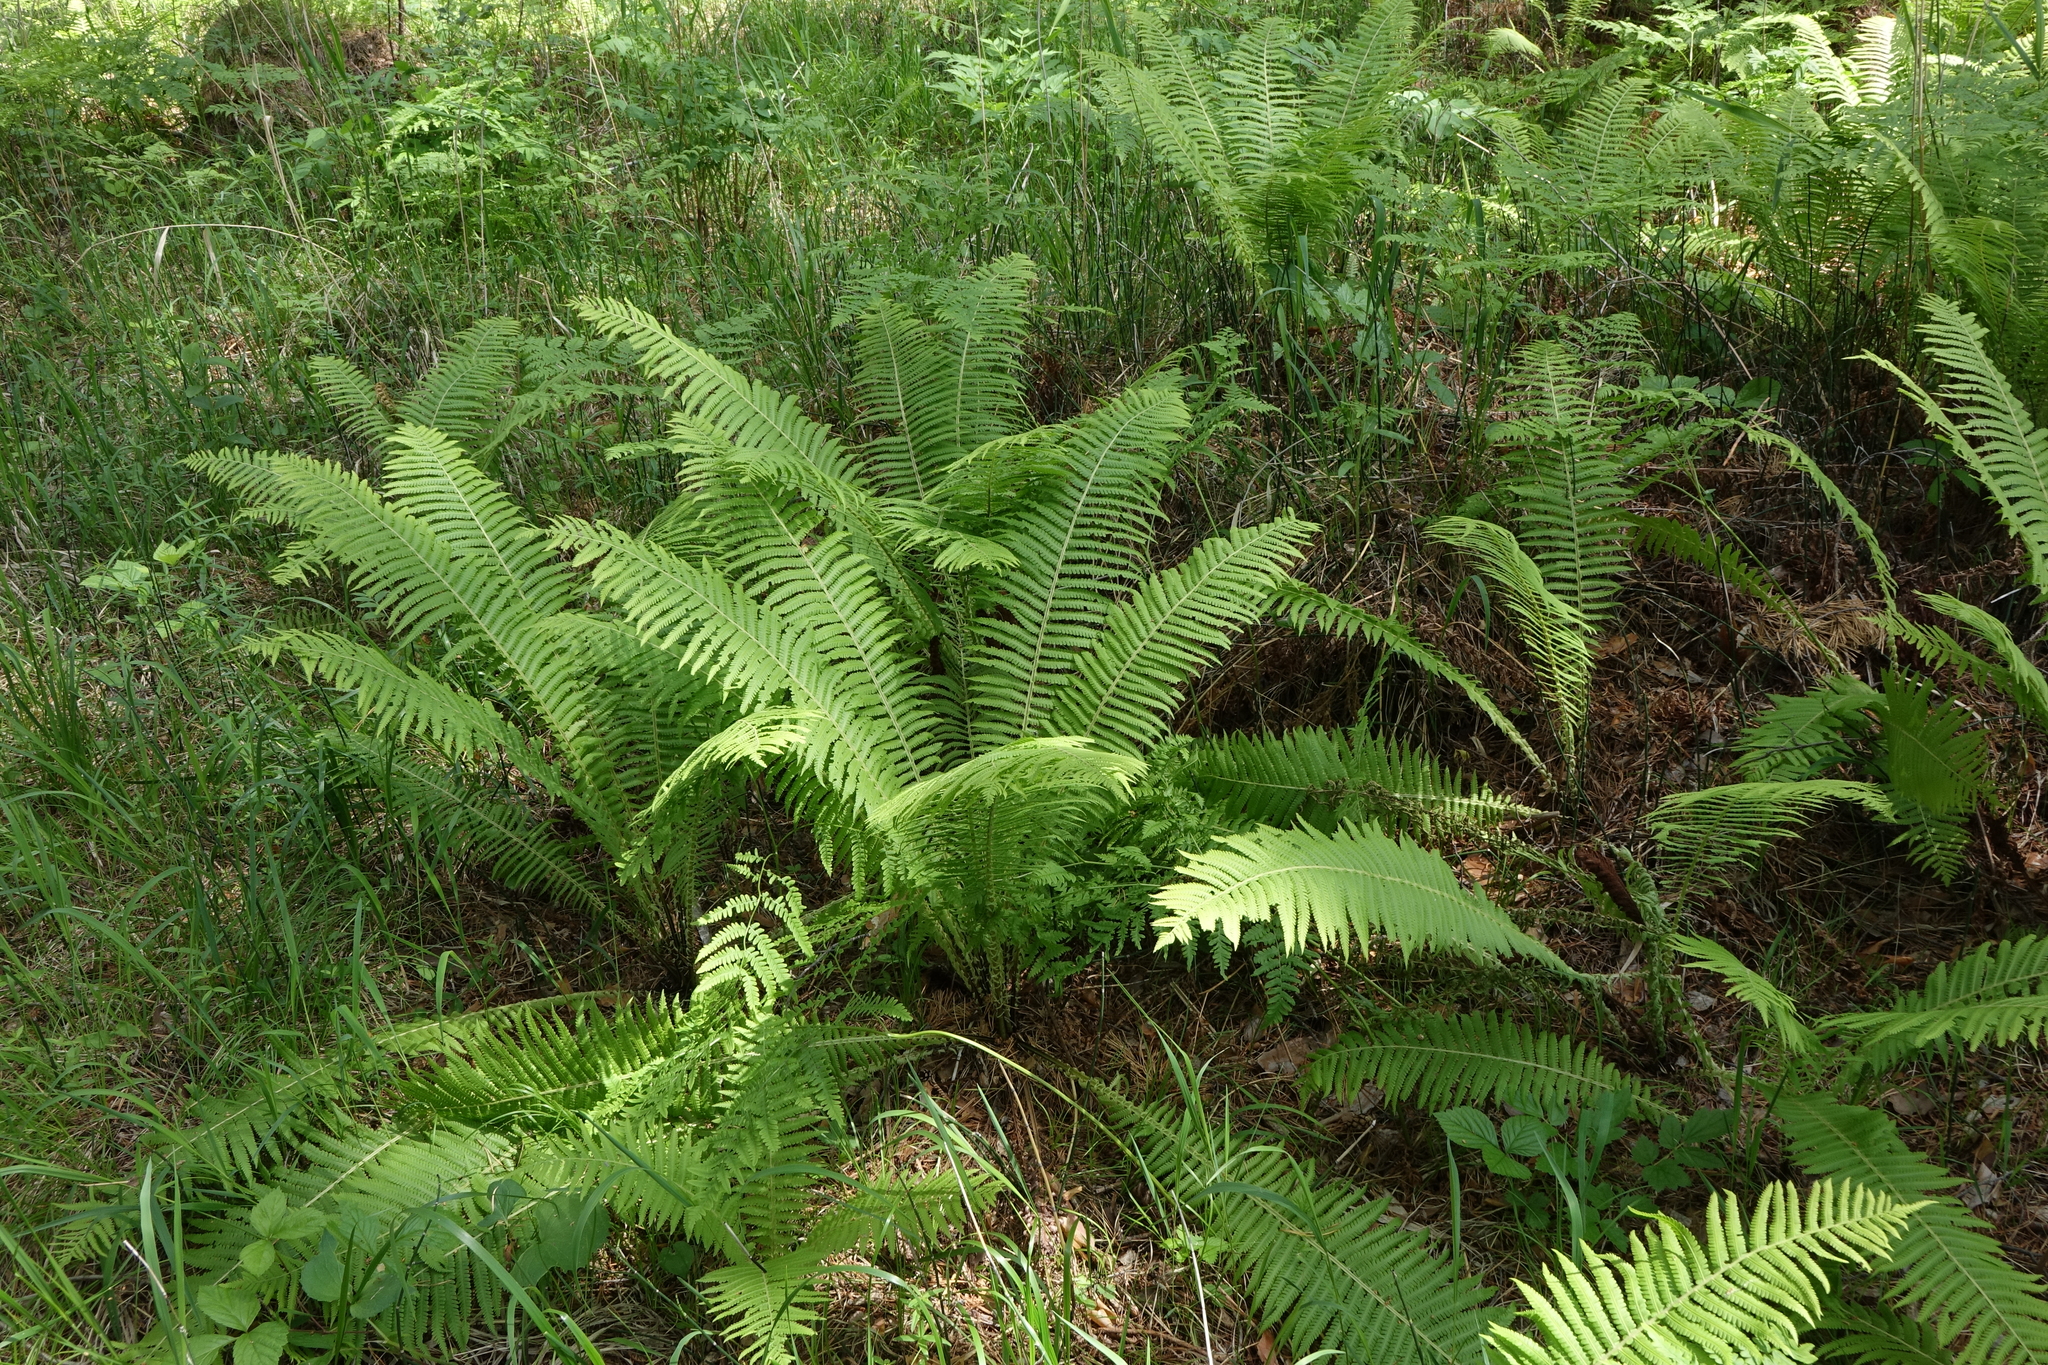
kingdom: Plantae
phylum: Tracheophyta
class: Polypodiopsida
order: Polypodiales
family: Onocleaceae
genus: Matteuccia
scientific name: Matteuccia struthiopteris
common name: Ostrich fern
